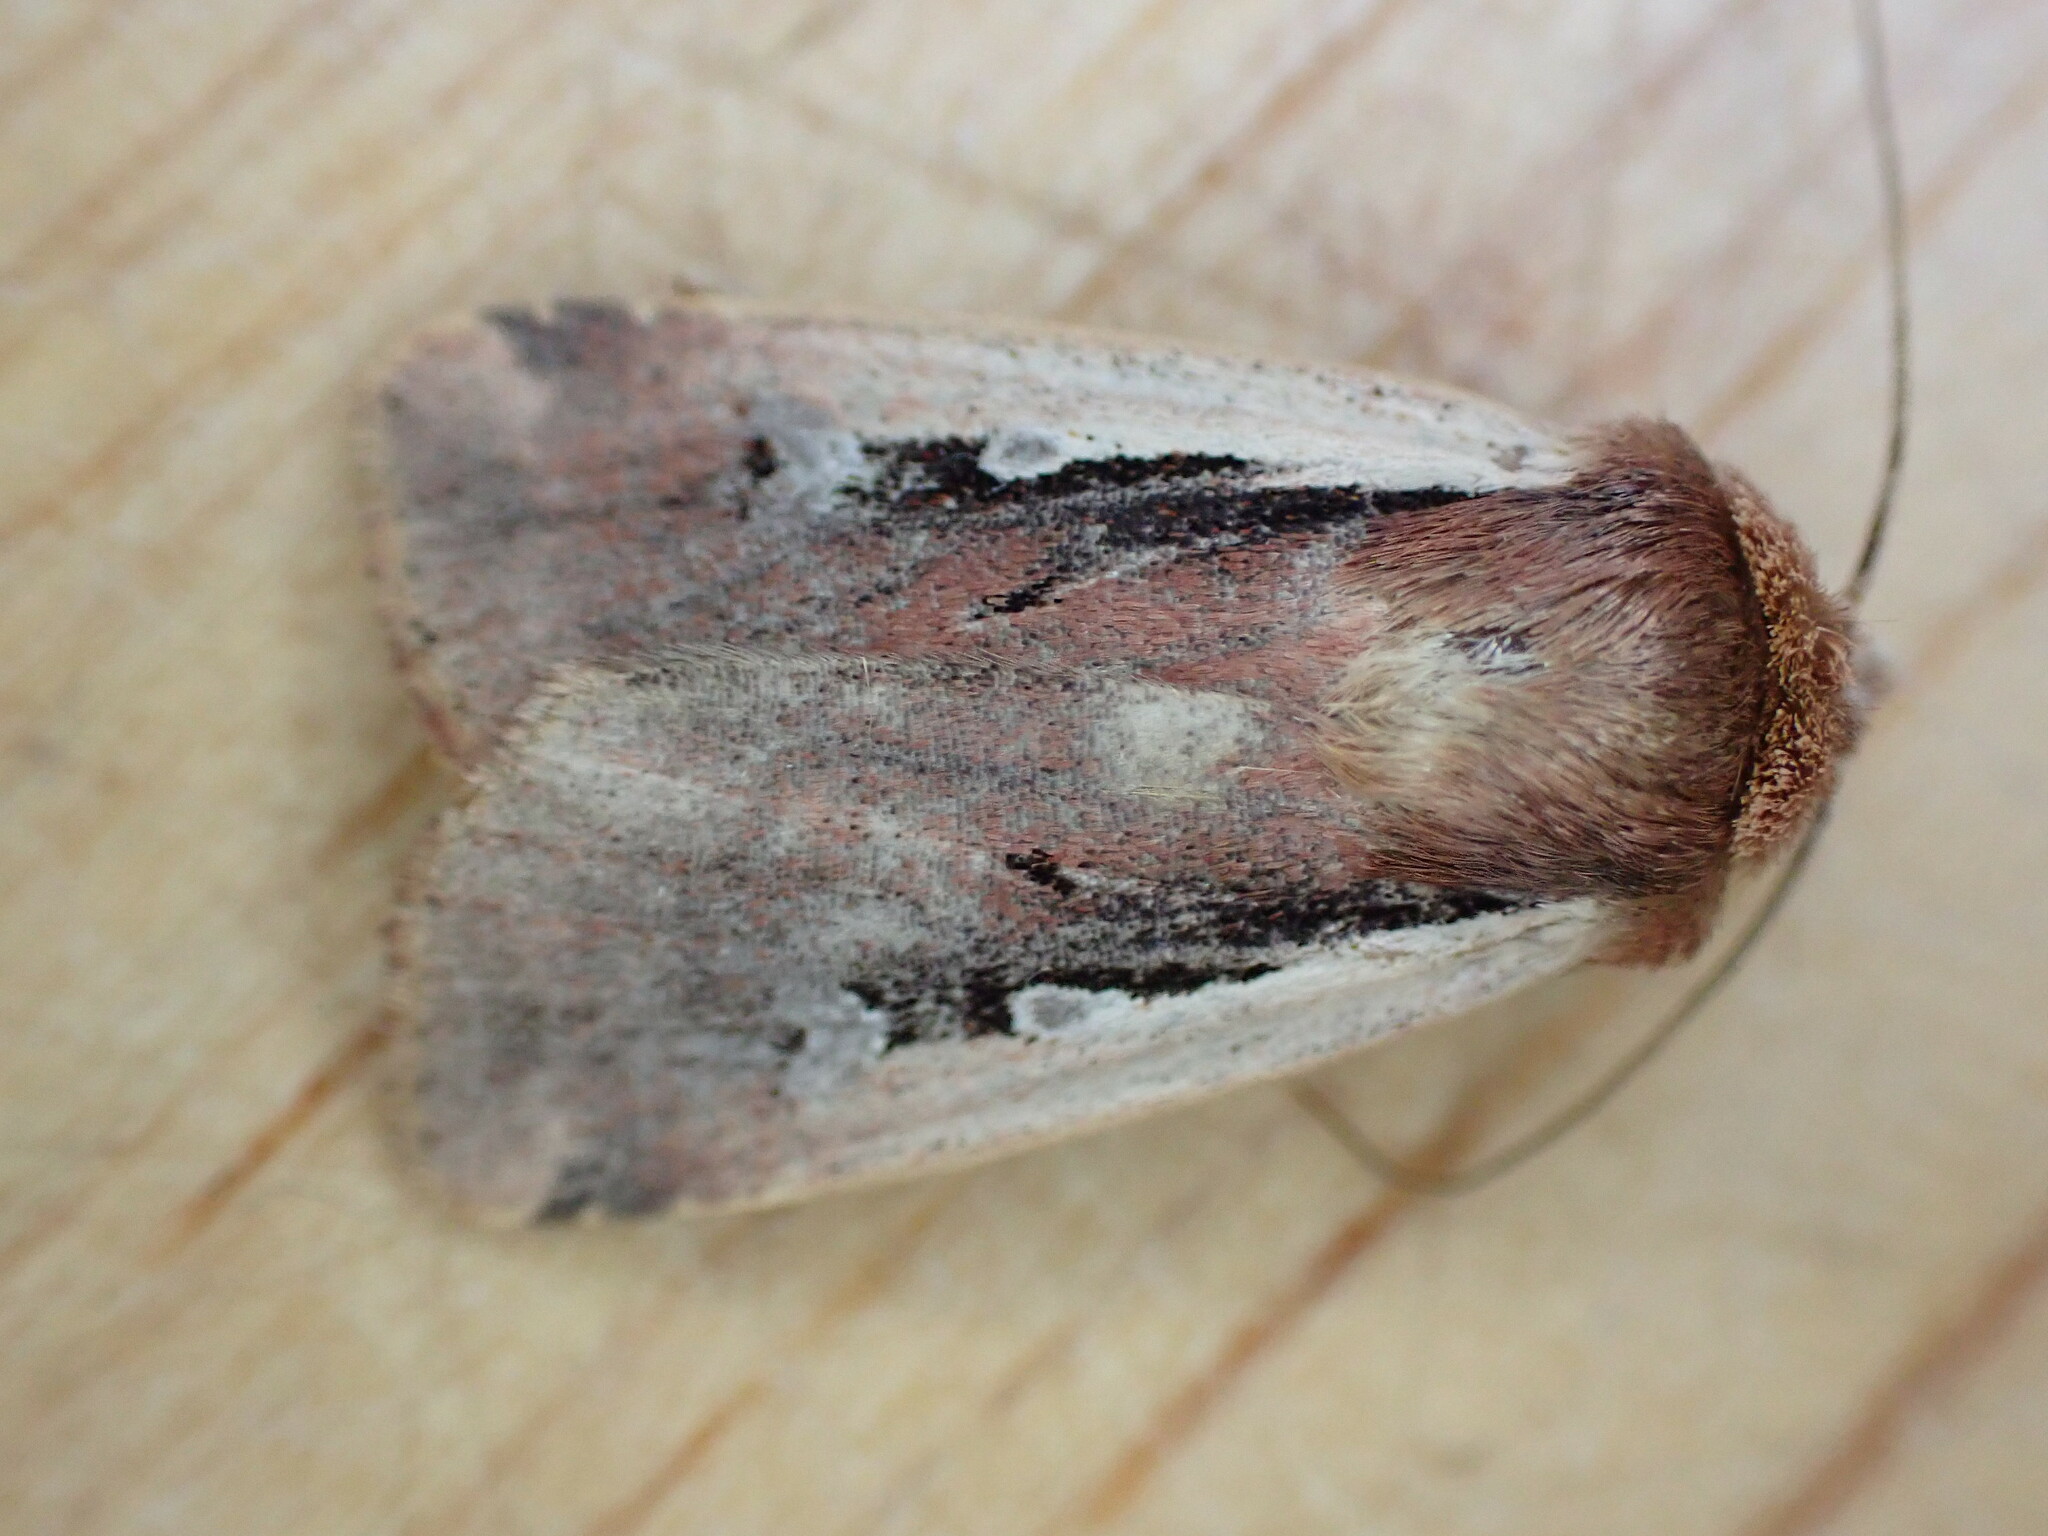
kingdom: Animalia
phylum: Arthropoda
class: Insecta
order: Lepidoptera
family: Noctuidae
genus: Ochropleura
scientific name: Ochropleura plecta
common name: Flame shoulder
